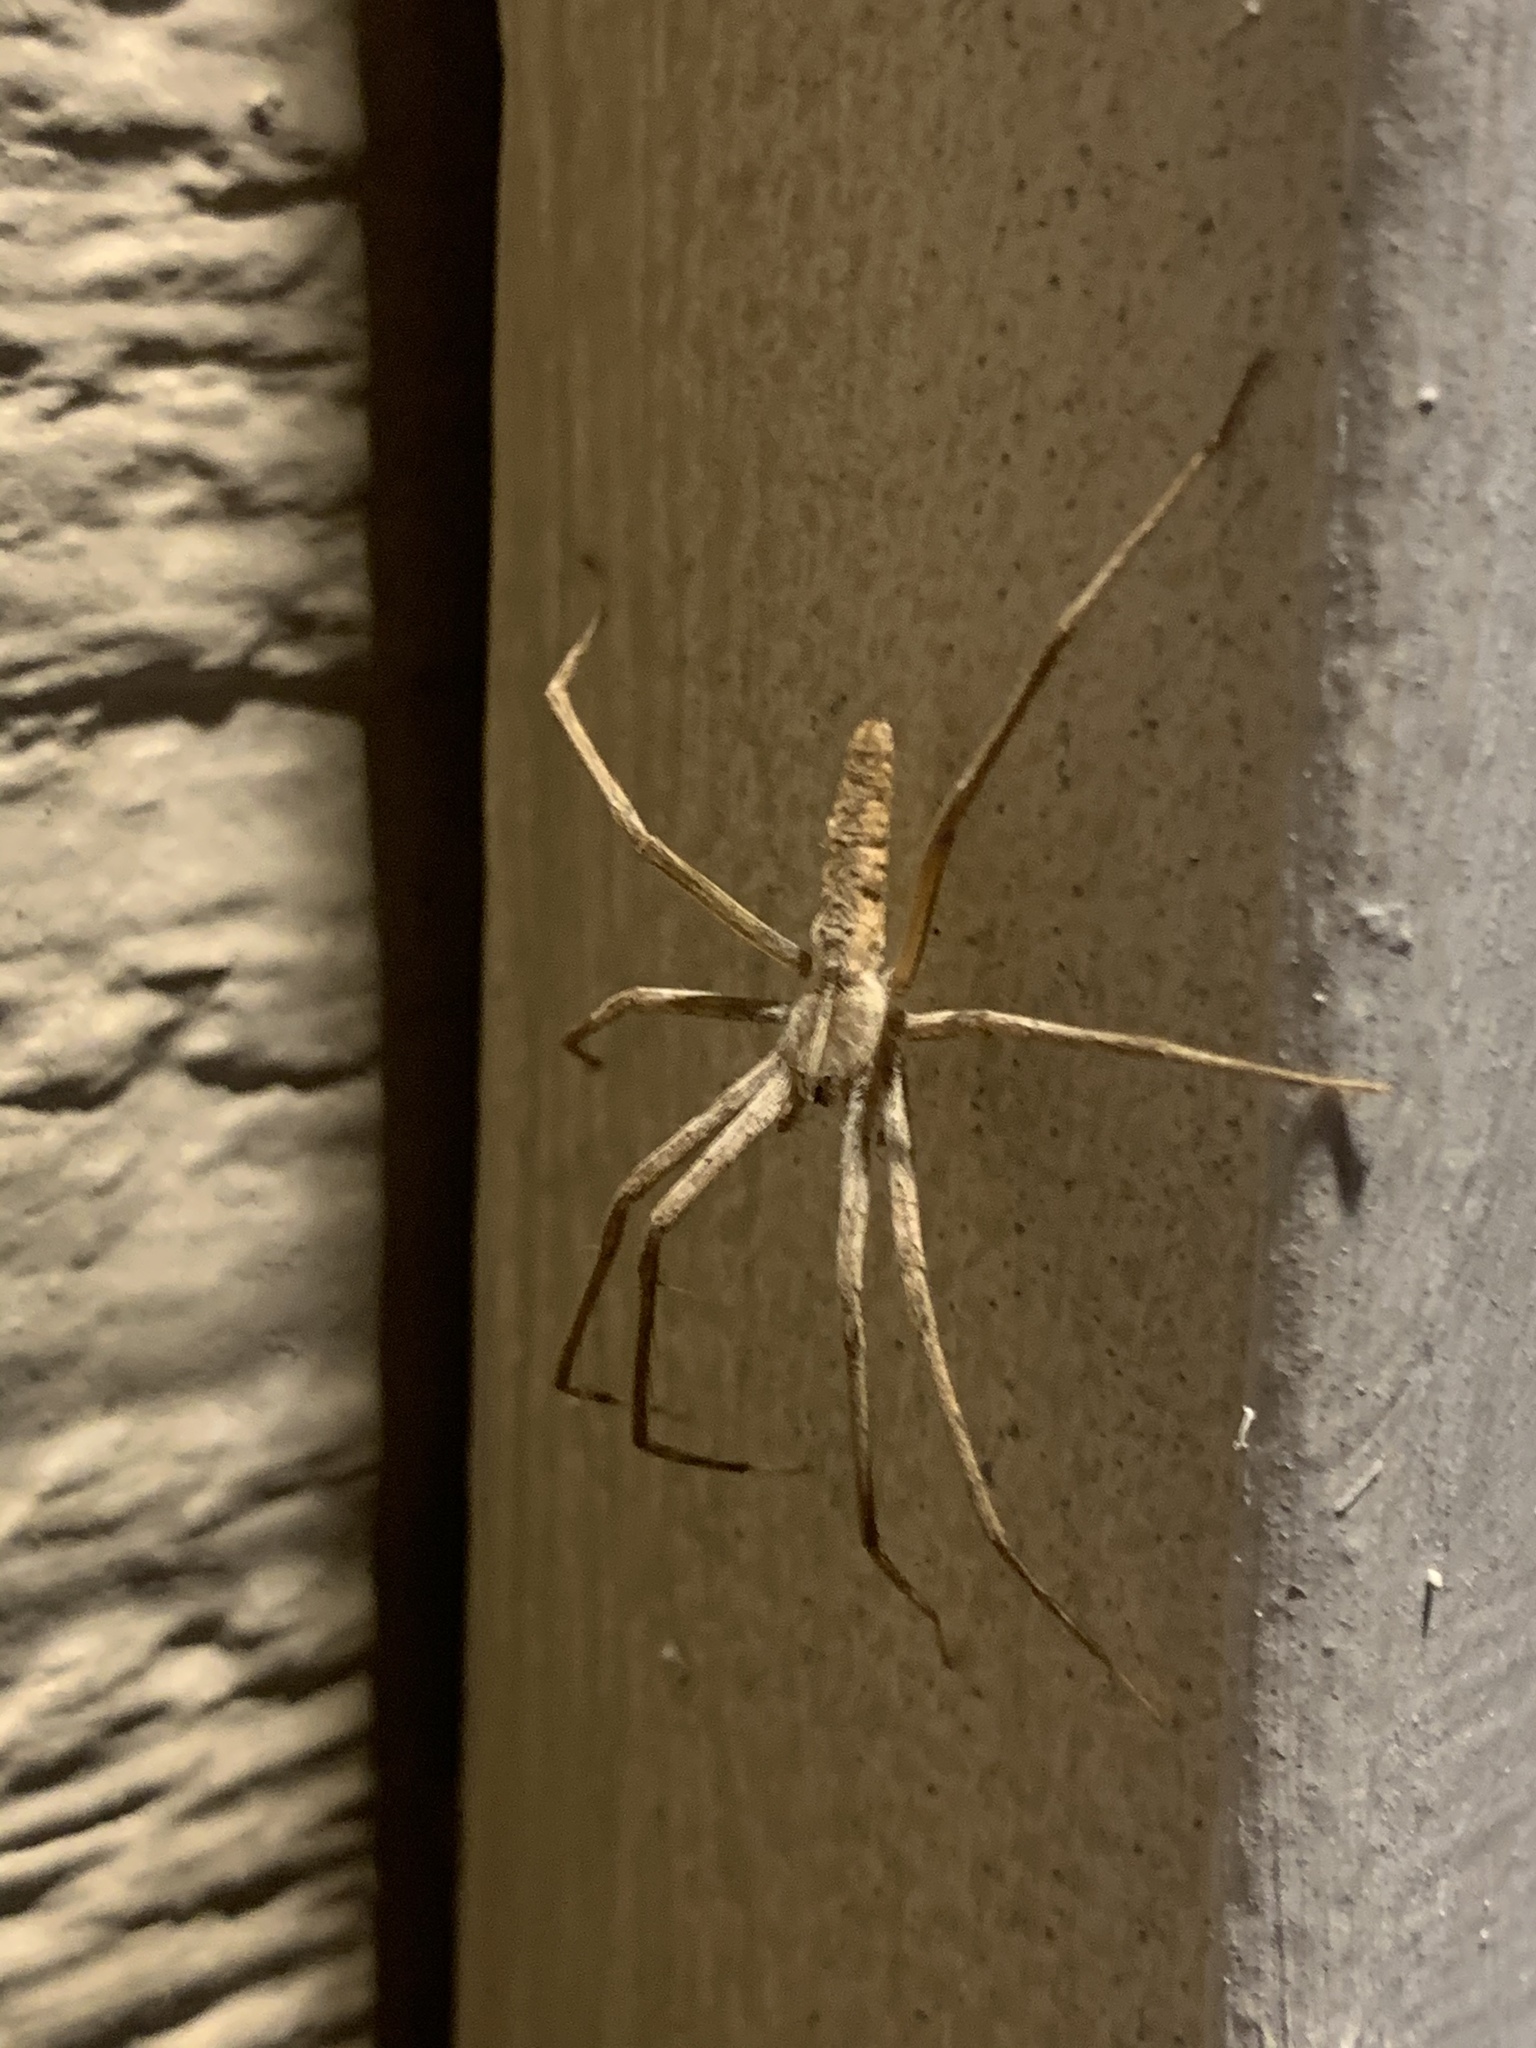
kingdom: Animalia
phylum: Arthropoda
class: Arachnida
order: Araneae
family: Pisauridae
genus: Pisaurina
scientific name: Pisaurina dubia
